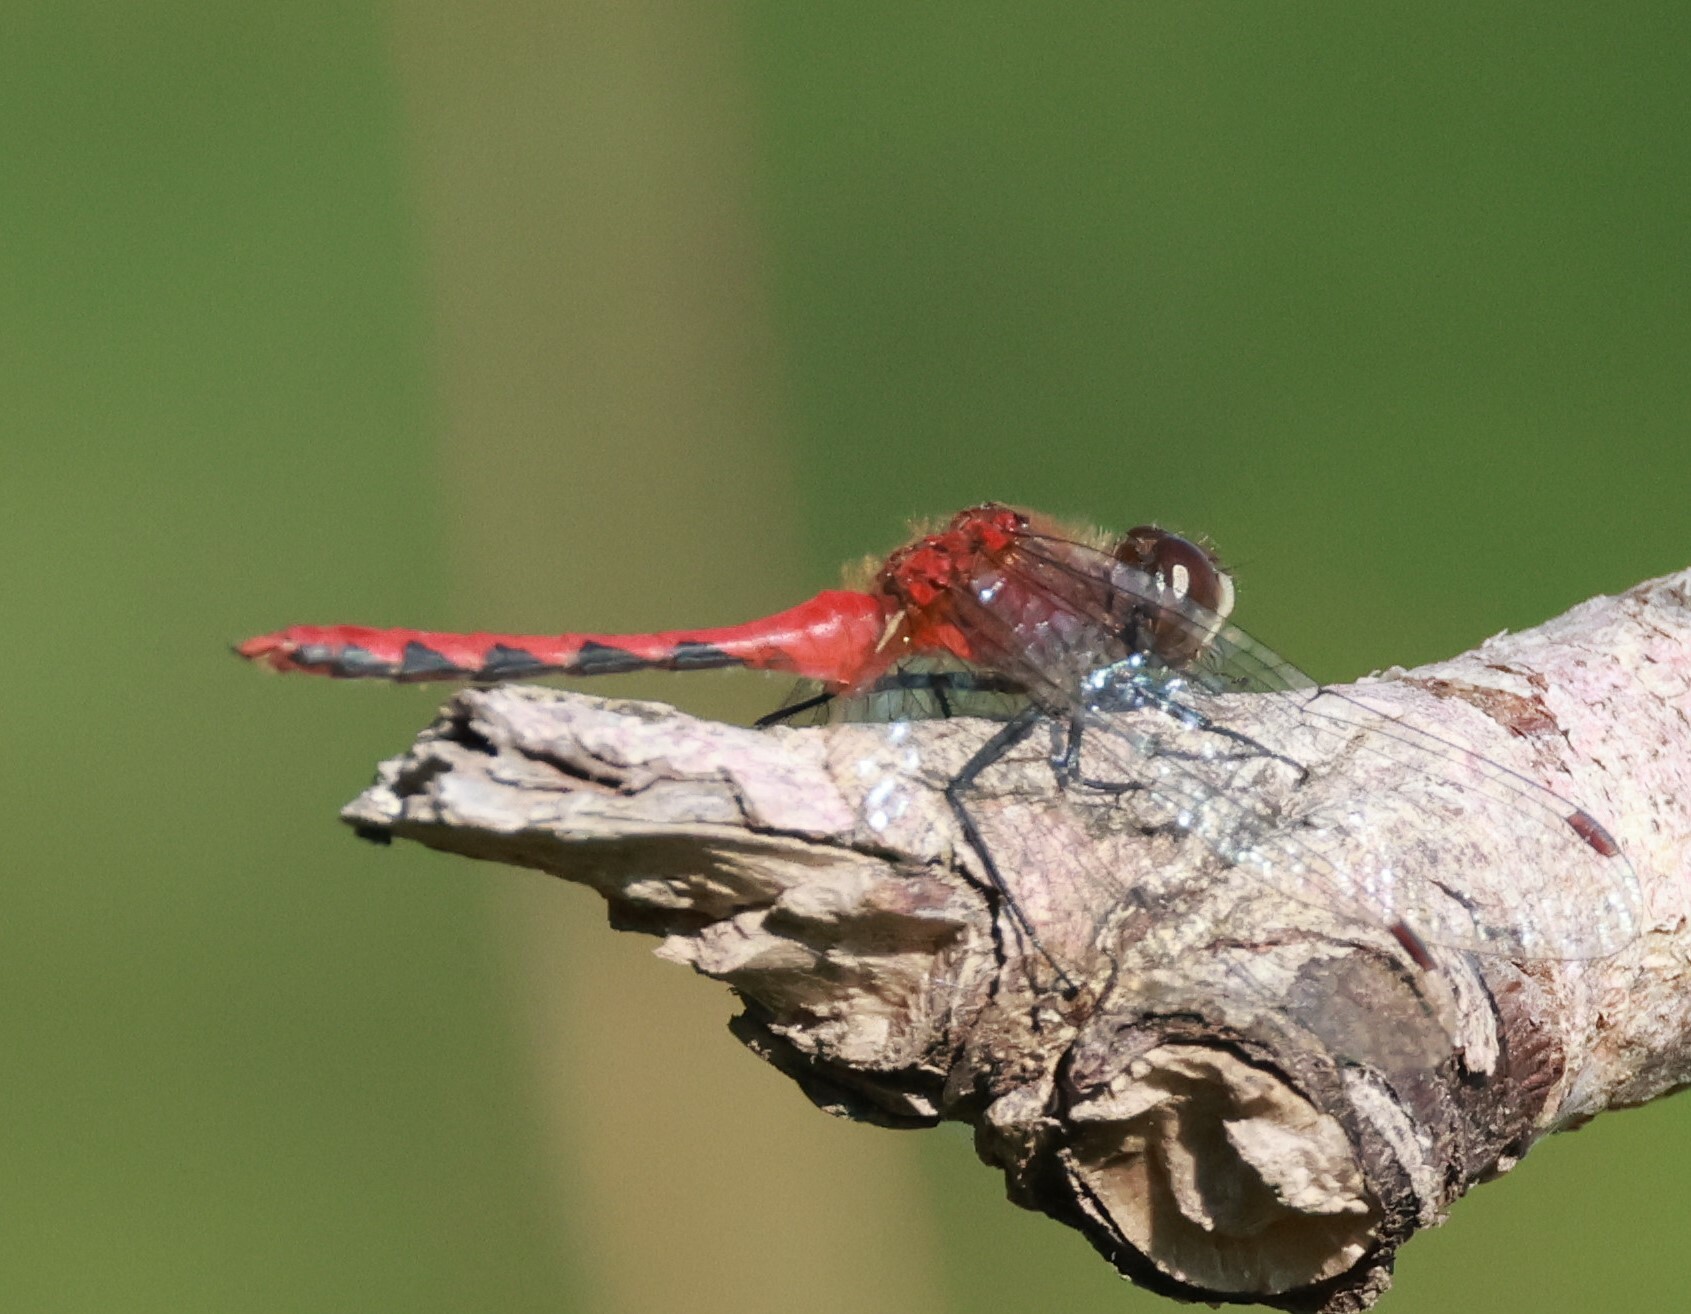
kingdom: Animalia
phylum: Arthropoda
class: Insecta
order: Odonata
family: Libellulidae
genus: Sympetrum
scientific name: Sympetrum obtrusum
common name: White-faced meadowhawk
